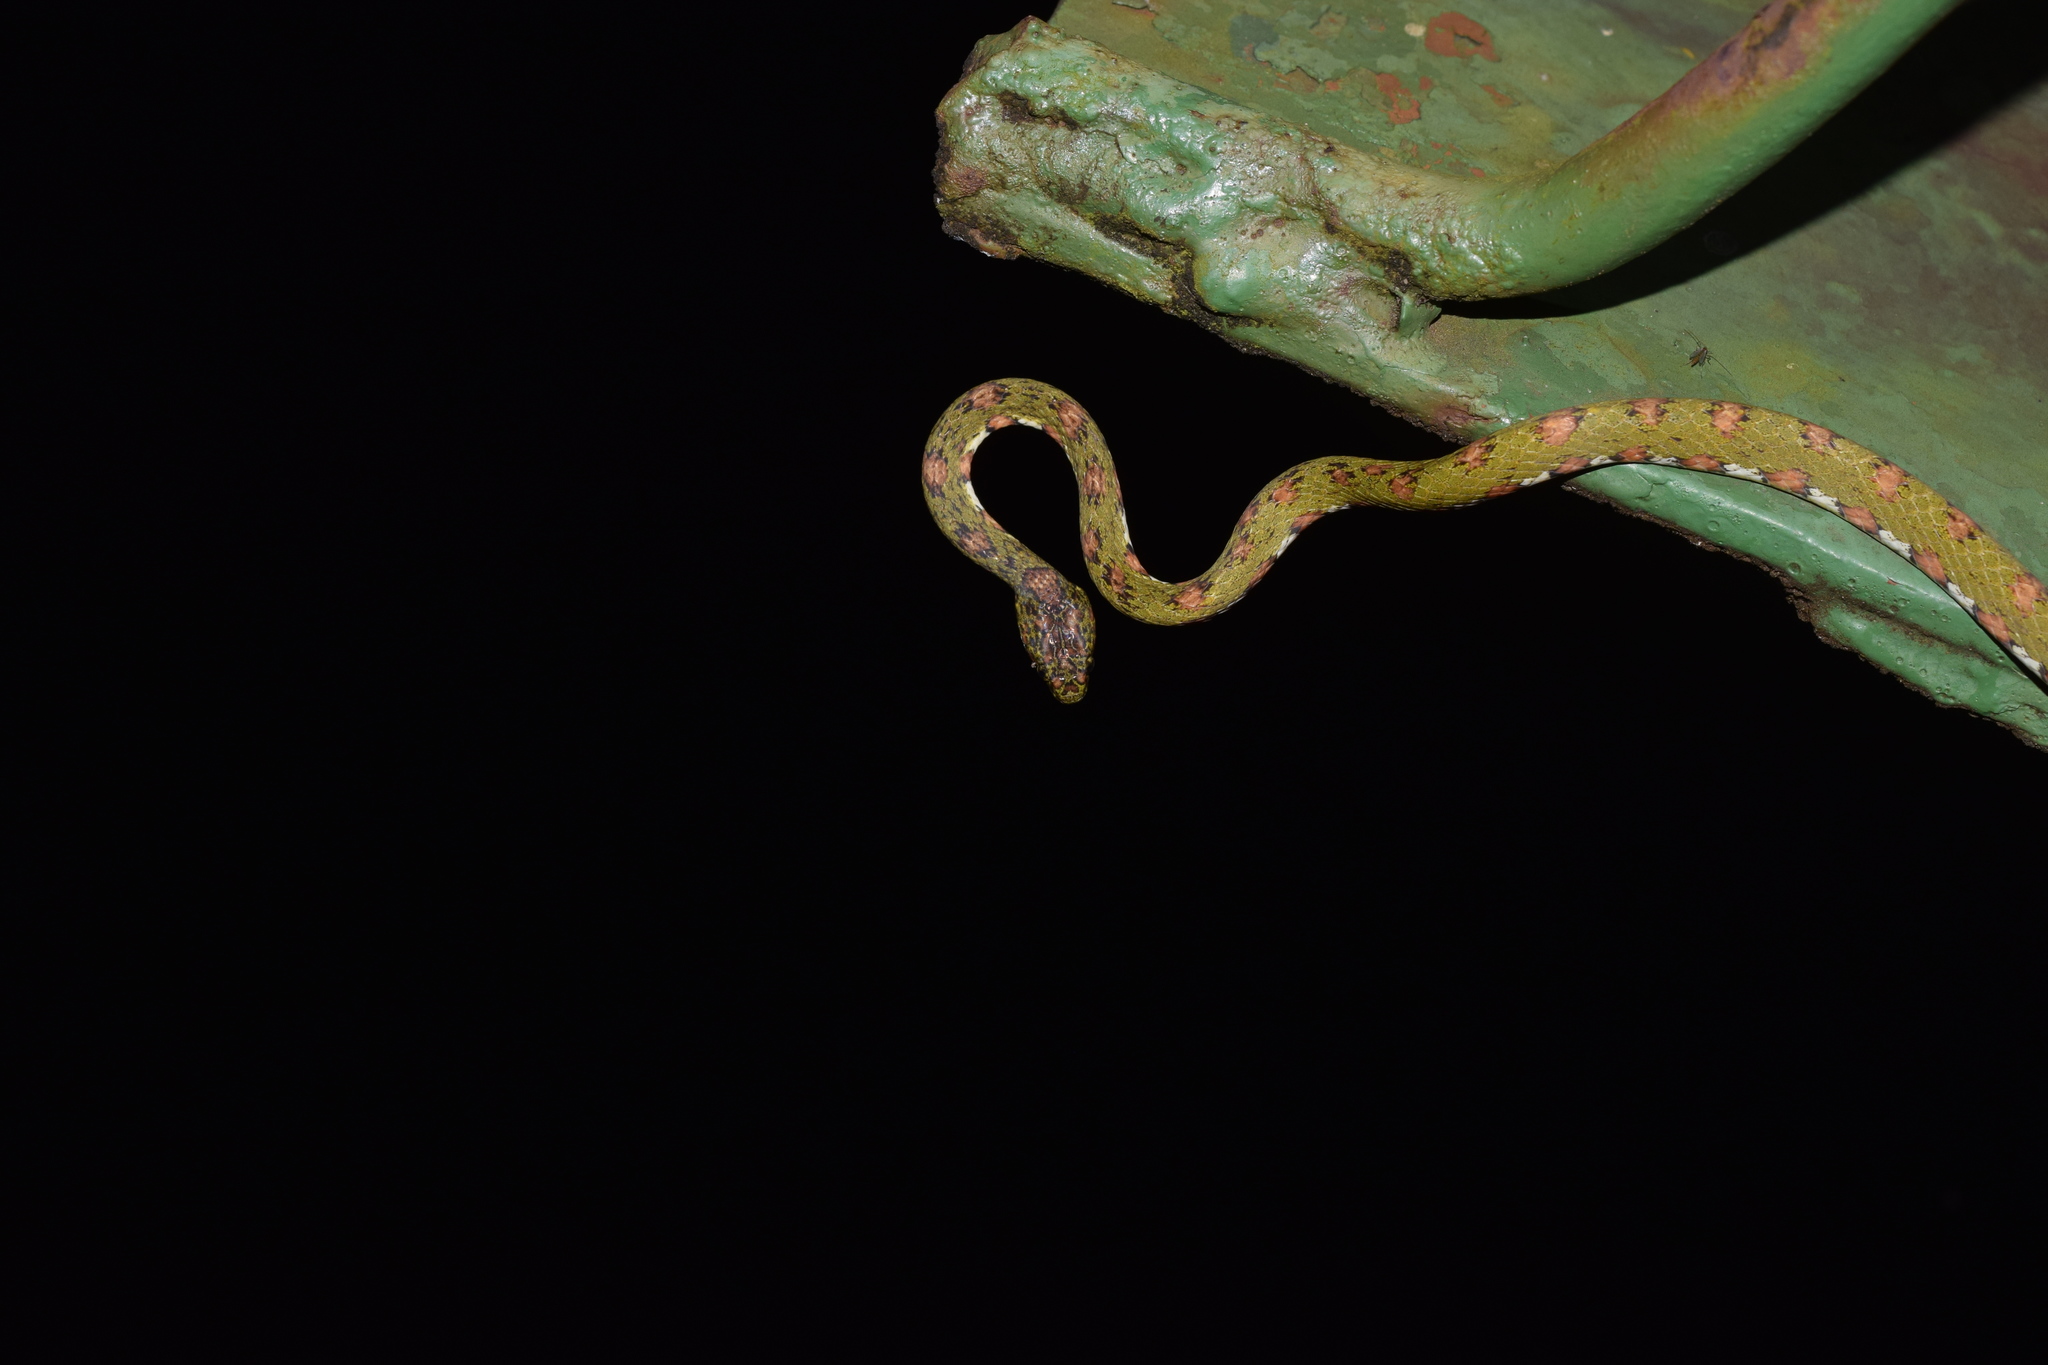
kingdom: Animalia
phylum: Chordata
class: Squamata
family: Colubridae
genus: Sibon
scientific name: Sibon longifrenis
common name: Stejneger's snail sucker
